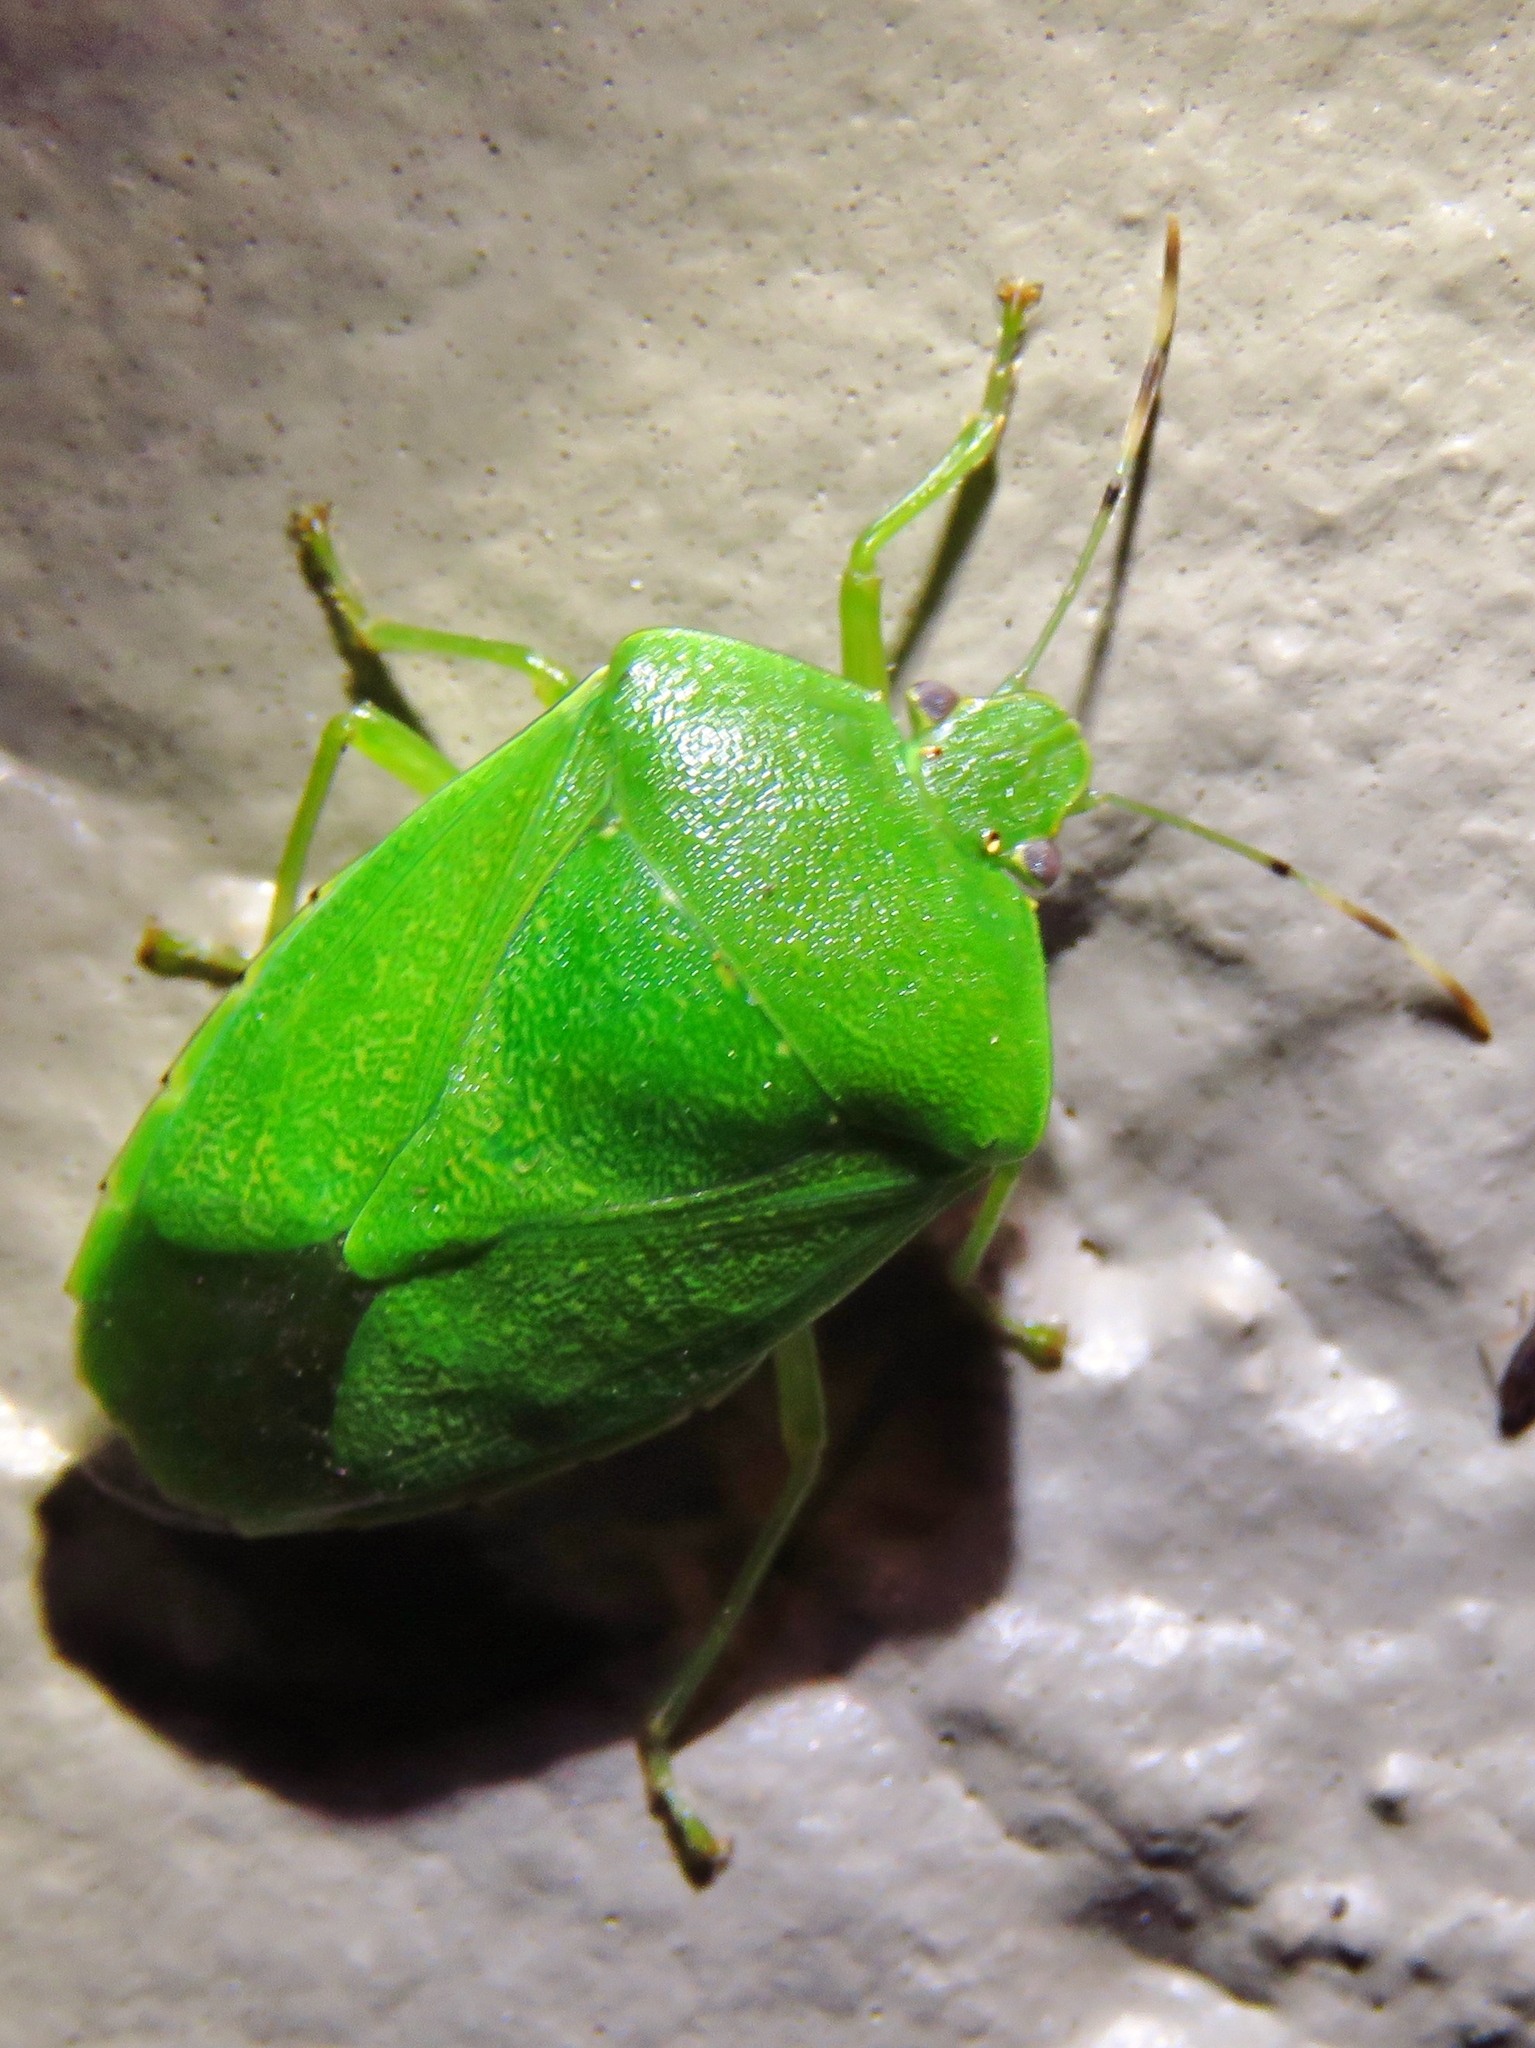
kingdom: Animalia
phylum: Arthropoda
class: Insecta
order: Hemiptera
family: Pentatomidae
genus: Chinavia
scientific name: Chinavia hilaris
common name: Green stink bug
